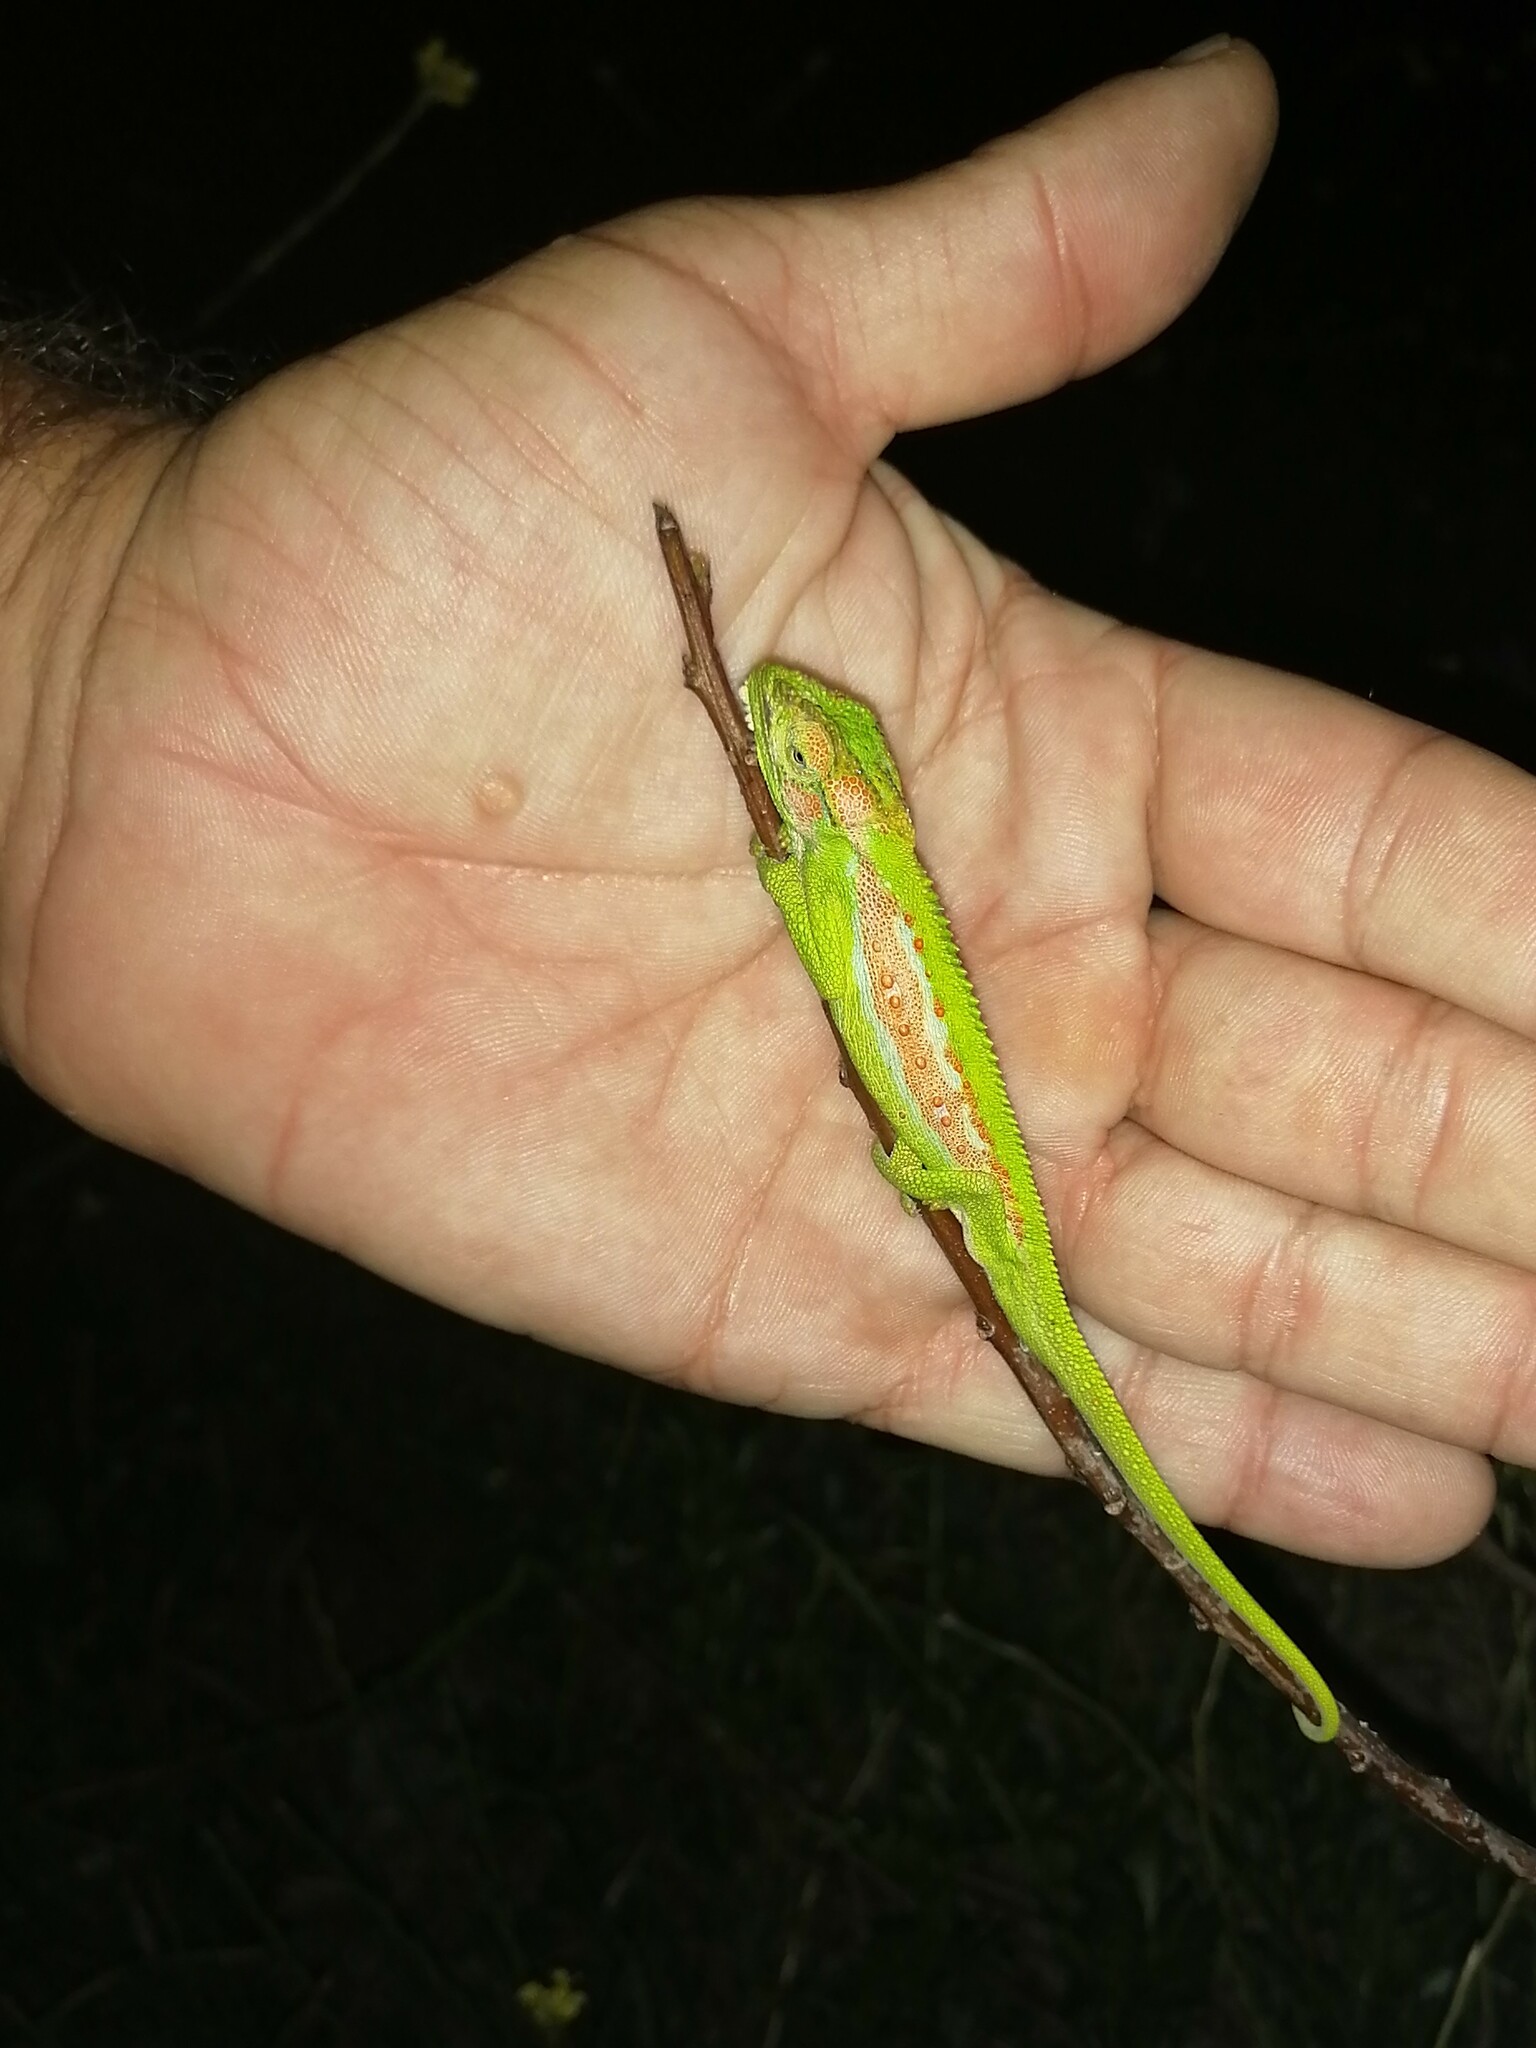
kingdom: Animalia
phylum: Chordata
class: Squamata
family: Chamaeleonidae
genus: Bradypodion
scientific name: Bradypodion pumilum
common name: Cape dwarf chameleon
